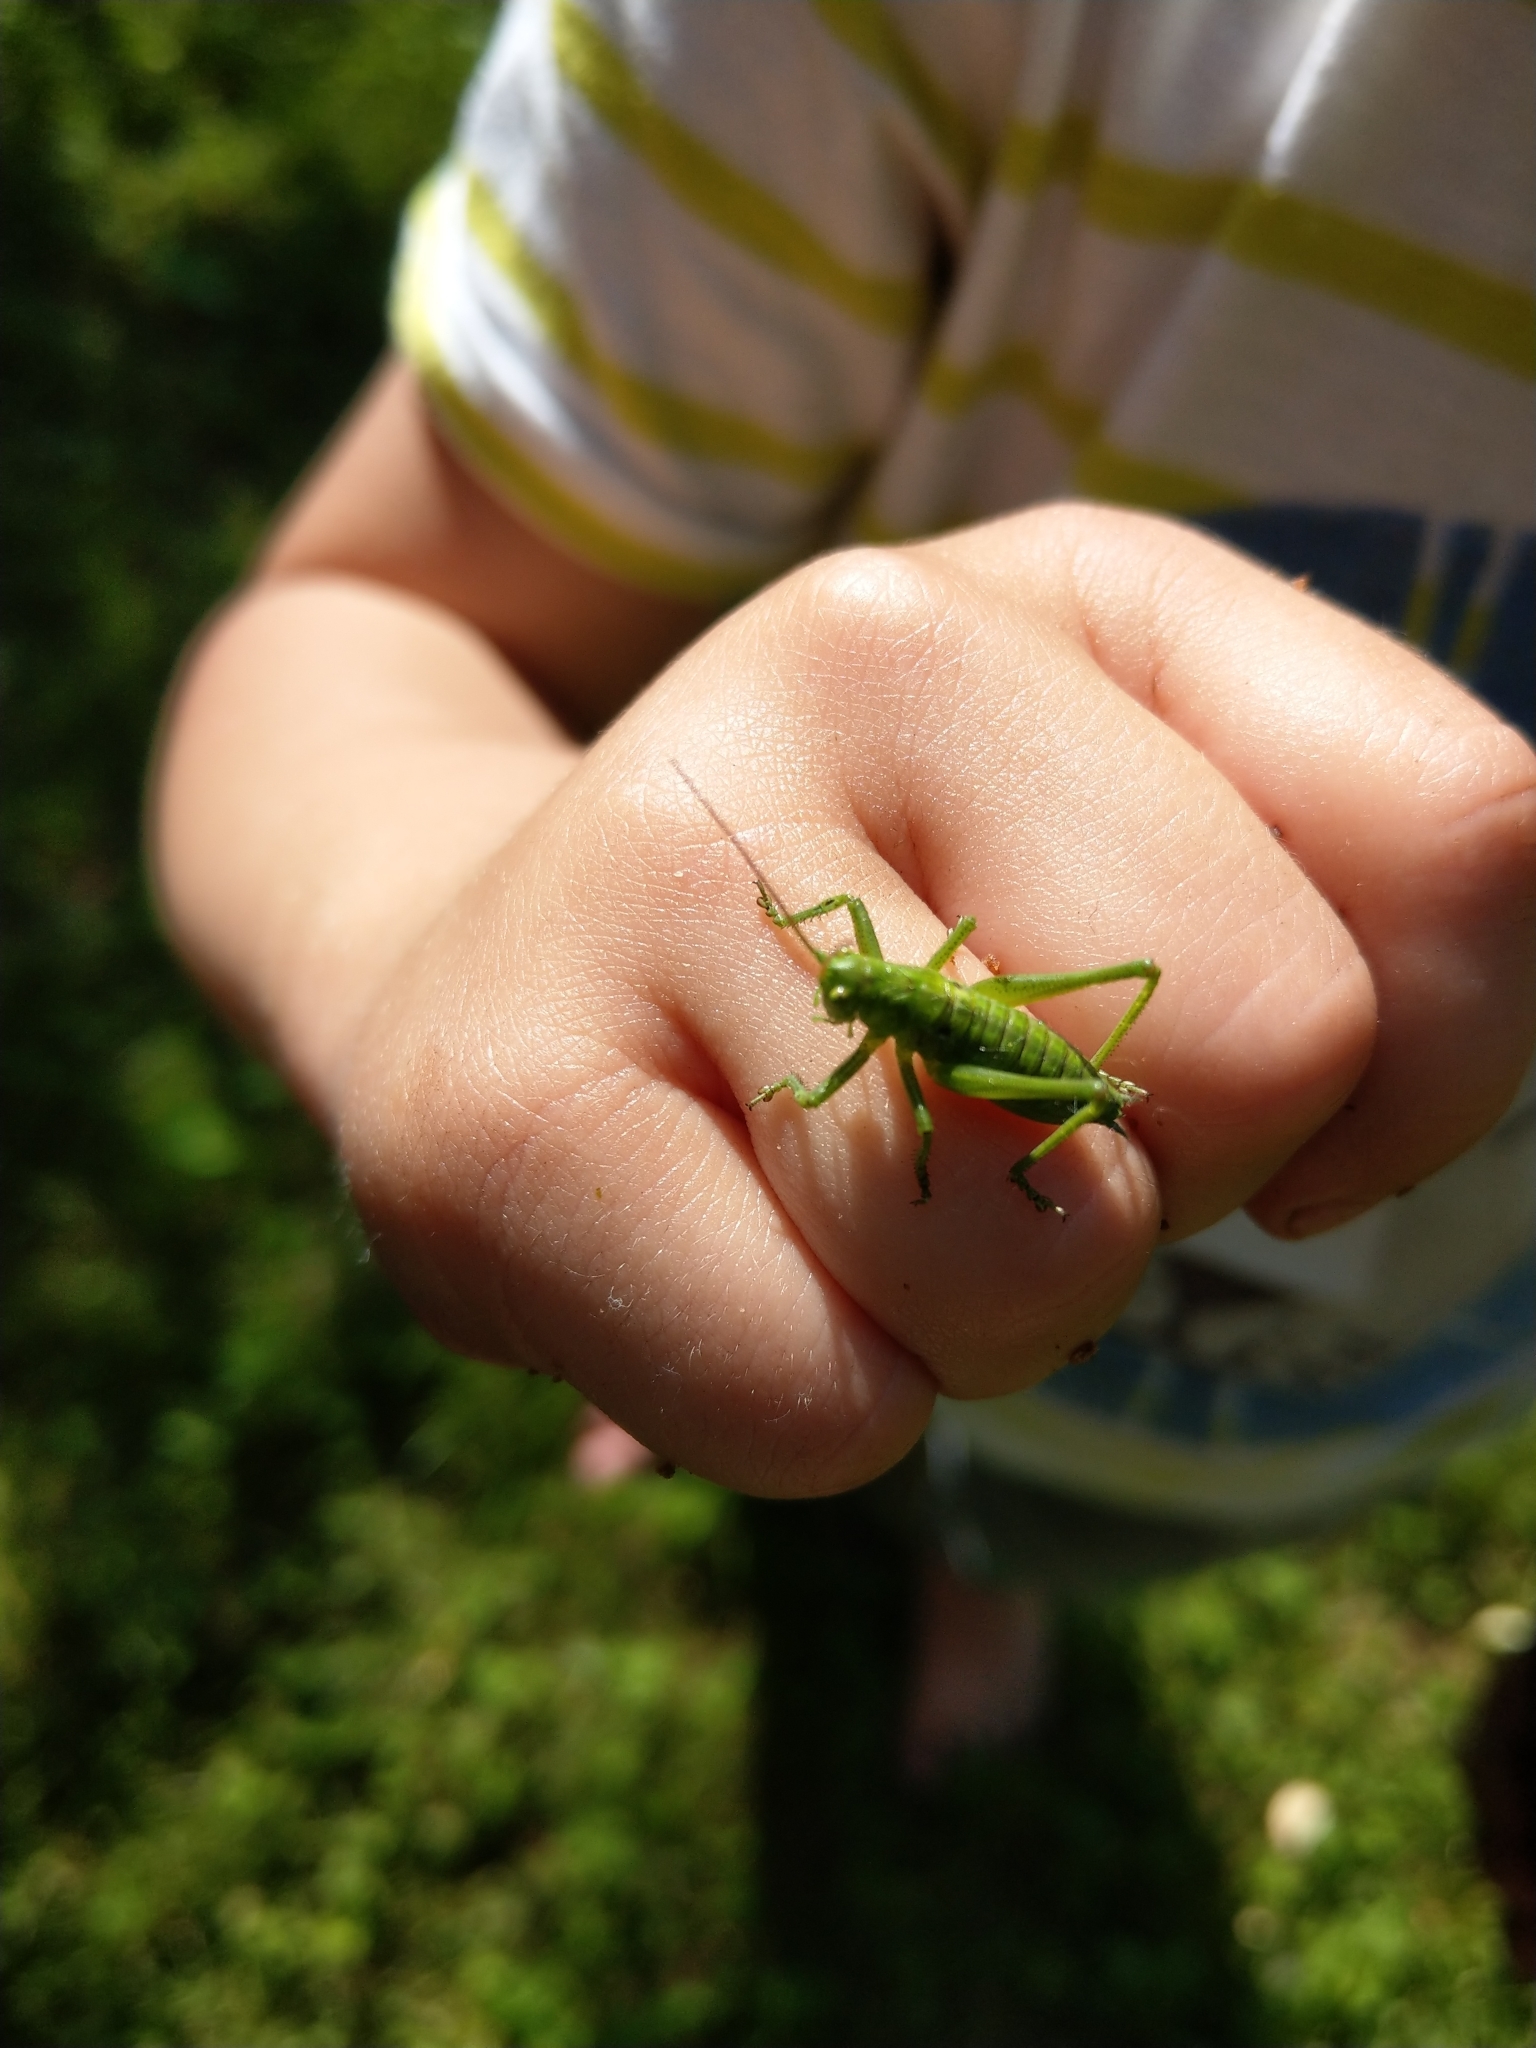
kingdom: Animalia
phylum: Arthropoda
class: Insecta
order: Orthoptera
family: Tettigoniidae
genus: Tettigonia
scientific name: Tettigonia viridissima
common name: Great green bush-cricket
